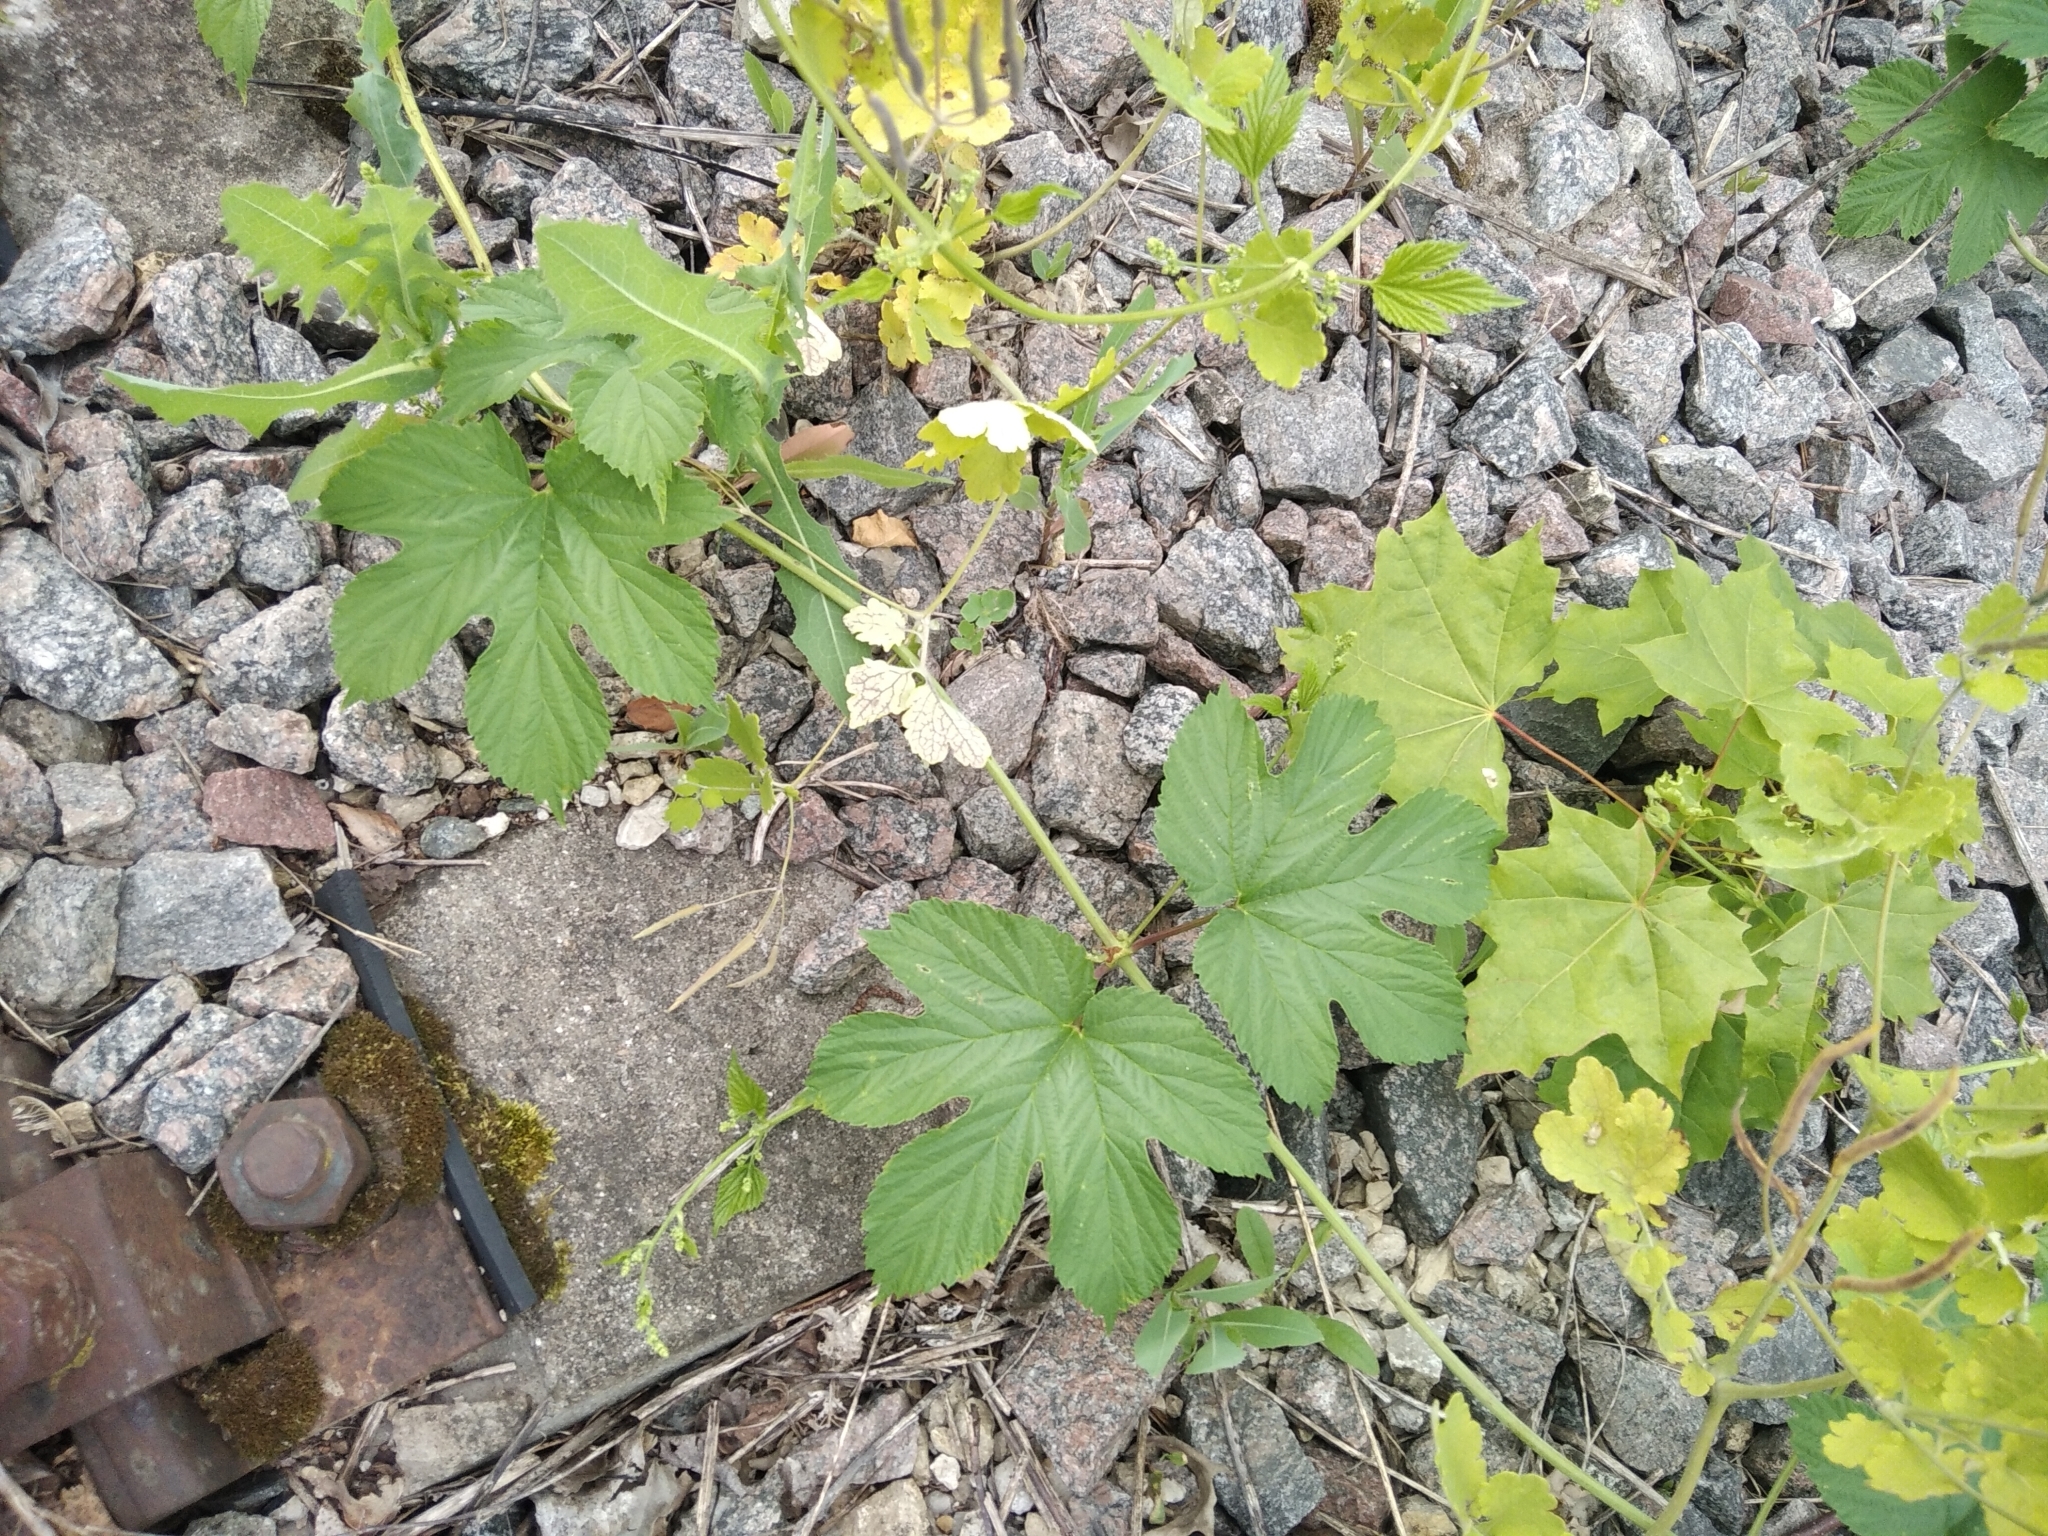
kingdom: Plantae
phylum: Tracheophyta
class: Magnoliopsida
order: Rosales
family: Cannabaceae
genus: Humulus
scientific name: Humulus lupulus
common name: Hop
